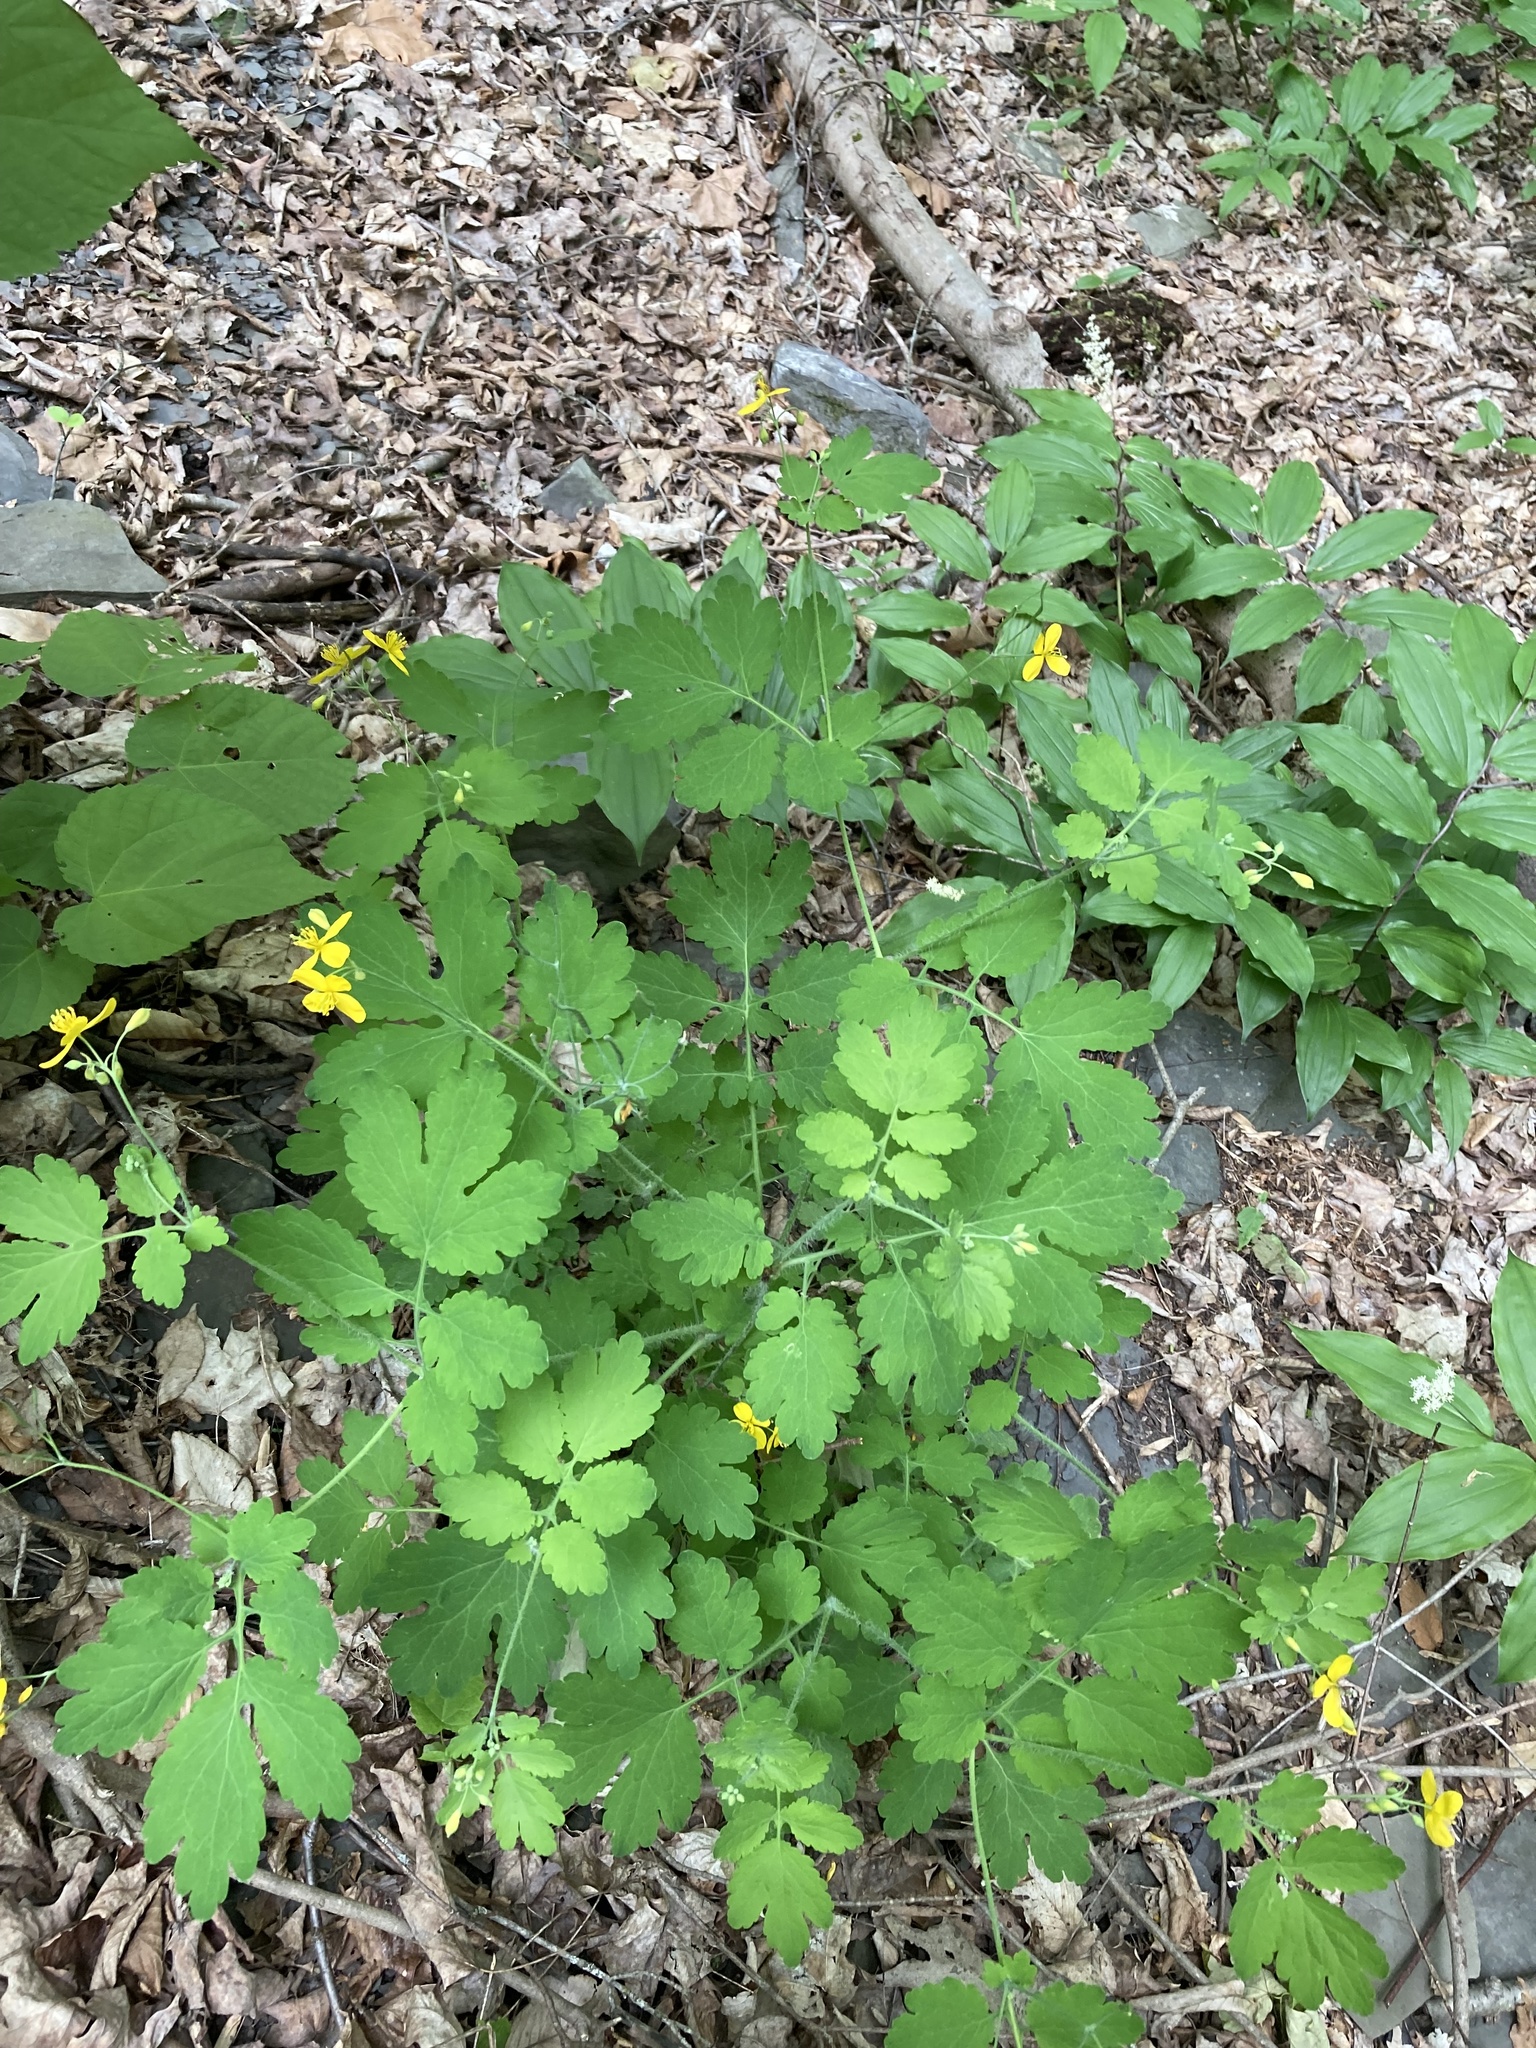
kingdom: Plantae
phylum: Tracheophyta
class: Magnoliopsida
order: Ranunculales
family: Papaveraceae
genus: Chelidonium
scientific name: Chelidonium majus
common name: Greater celandine
